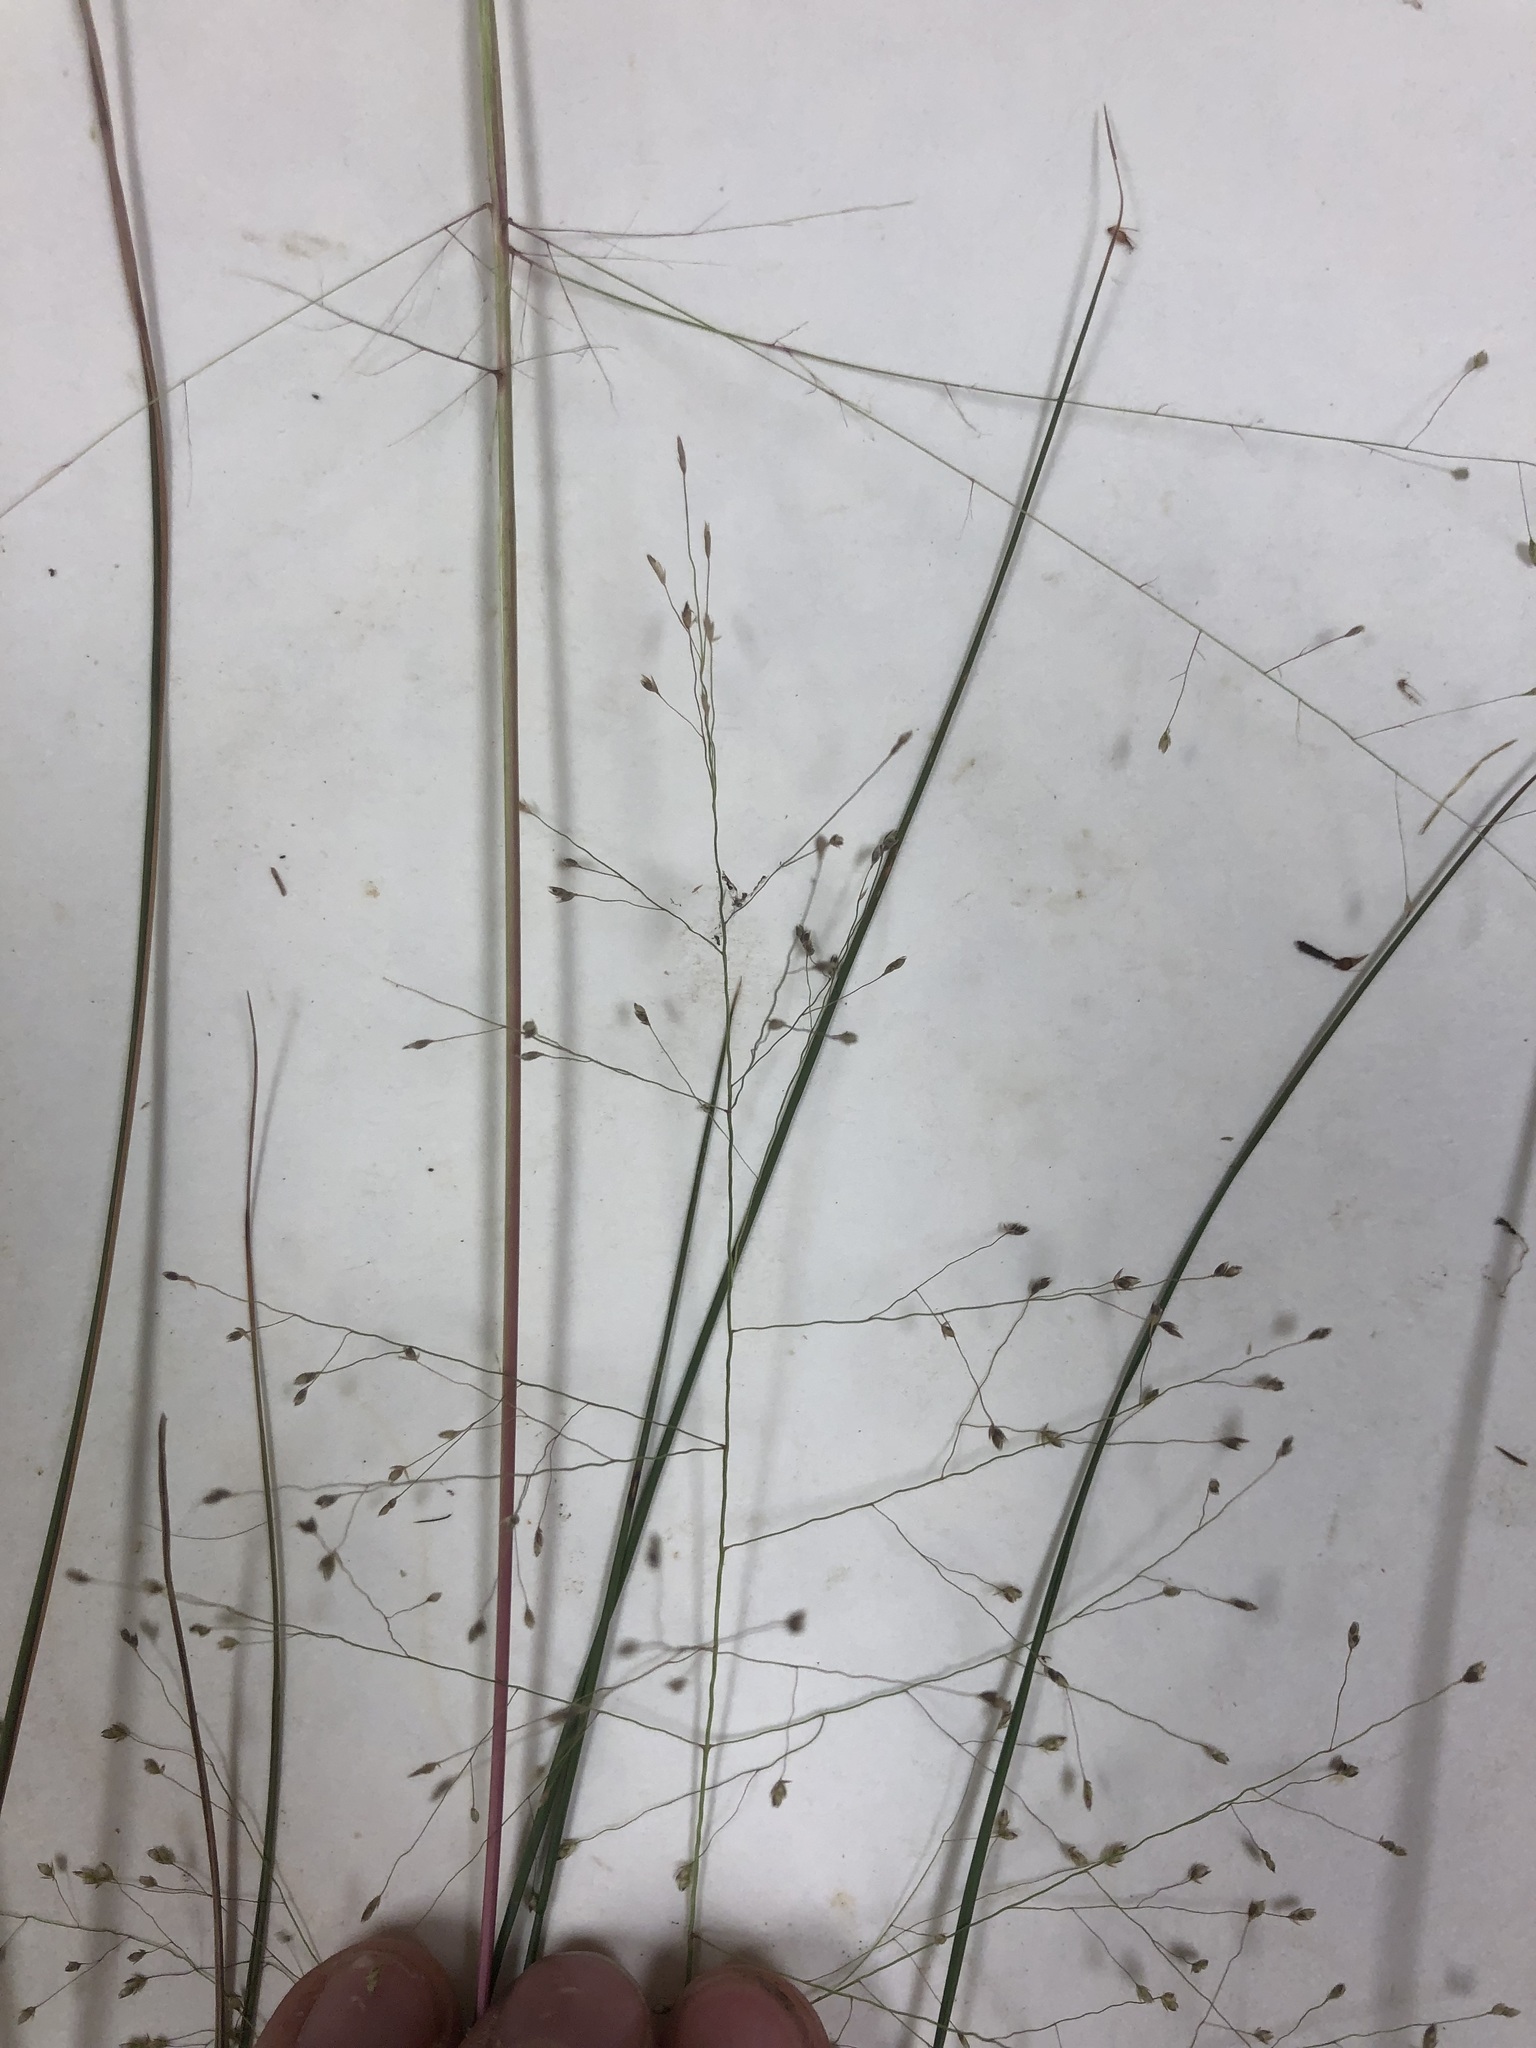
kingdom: Plantae
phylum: Tracheophyta
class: Liliopsida
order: Poales
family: Poaceae
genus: Eragrostis
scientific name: Eragrostis capillaris
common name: Hair-like lovegrass
